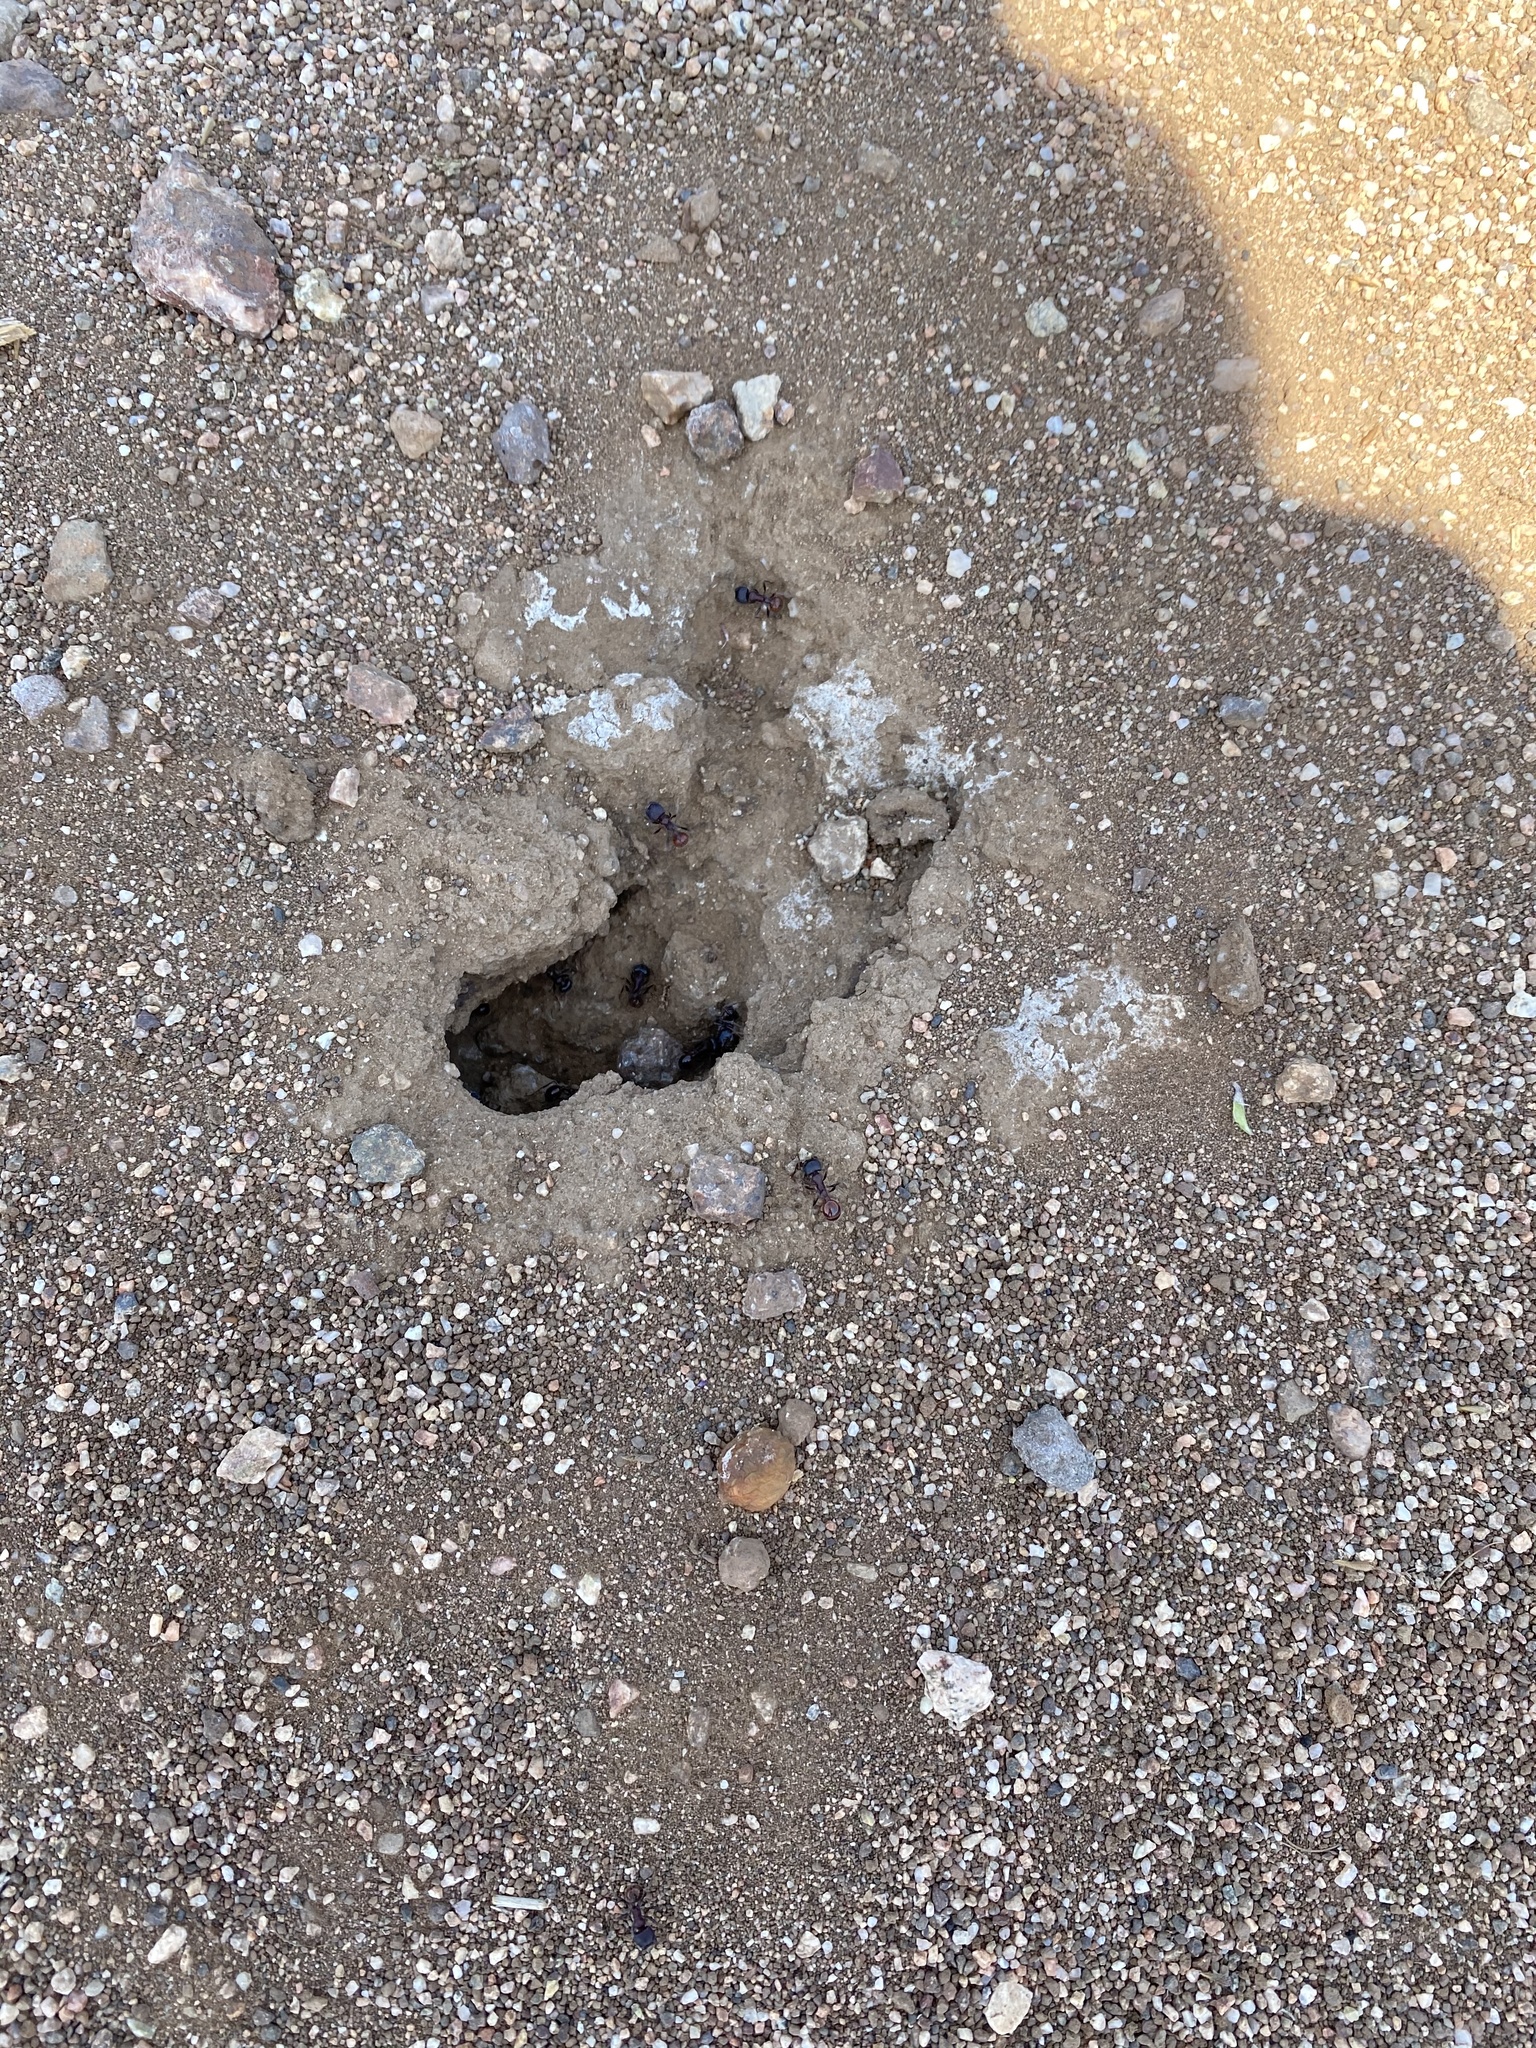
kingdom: Animalia
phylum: Arthropoda
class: Insecta
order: Hymenoptera
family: Formicidae
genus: Pogonomyrmex
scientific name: Pogonomyrmex rugosus
